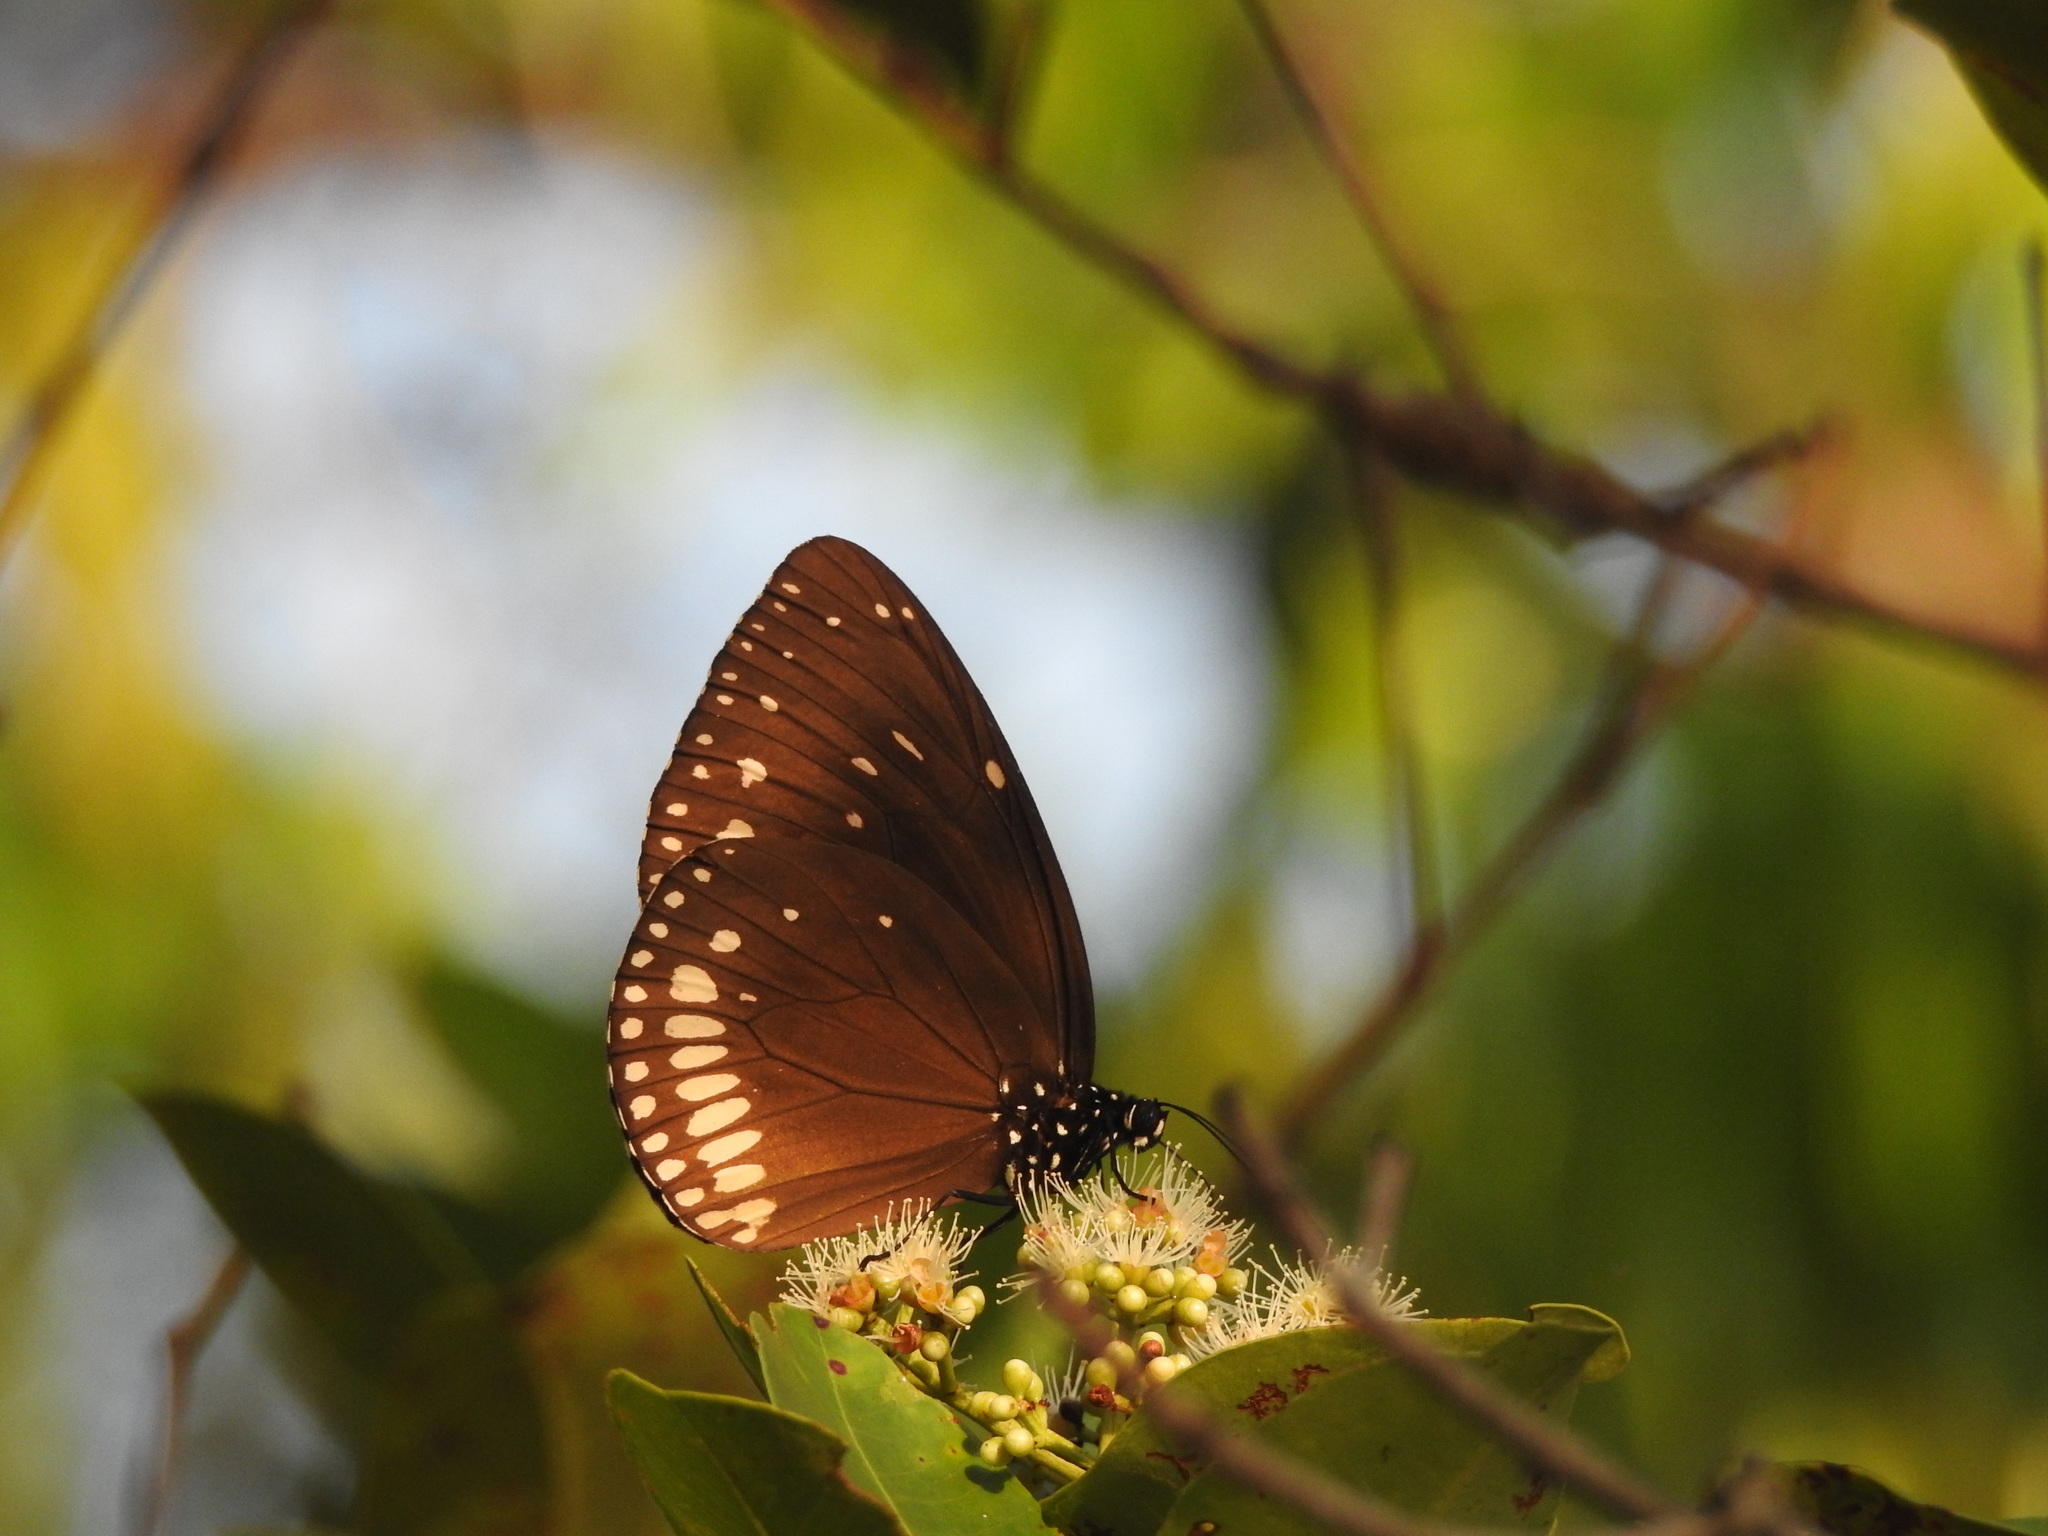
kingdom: Animalia
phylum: Arthropoda
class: Insecta
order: Lepidoptera
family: Nymphalidae
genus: Euploea
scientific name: Euploea klugii
